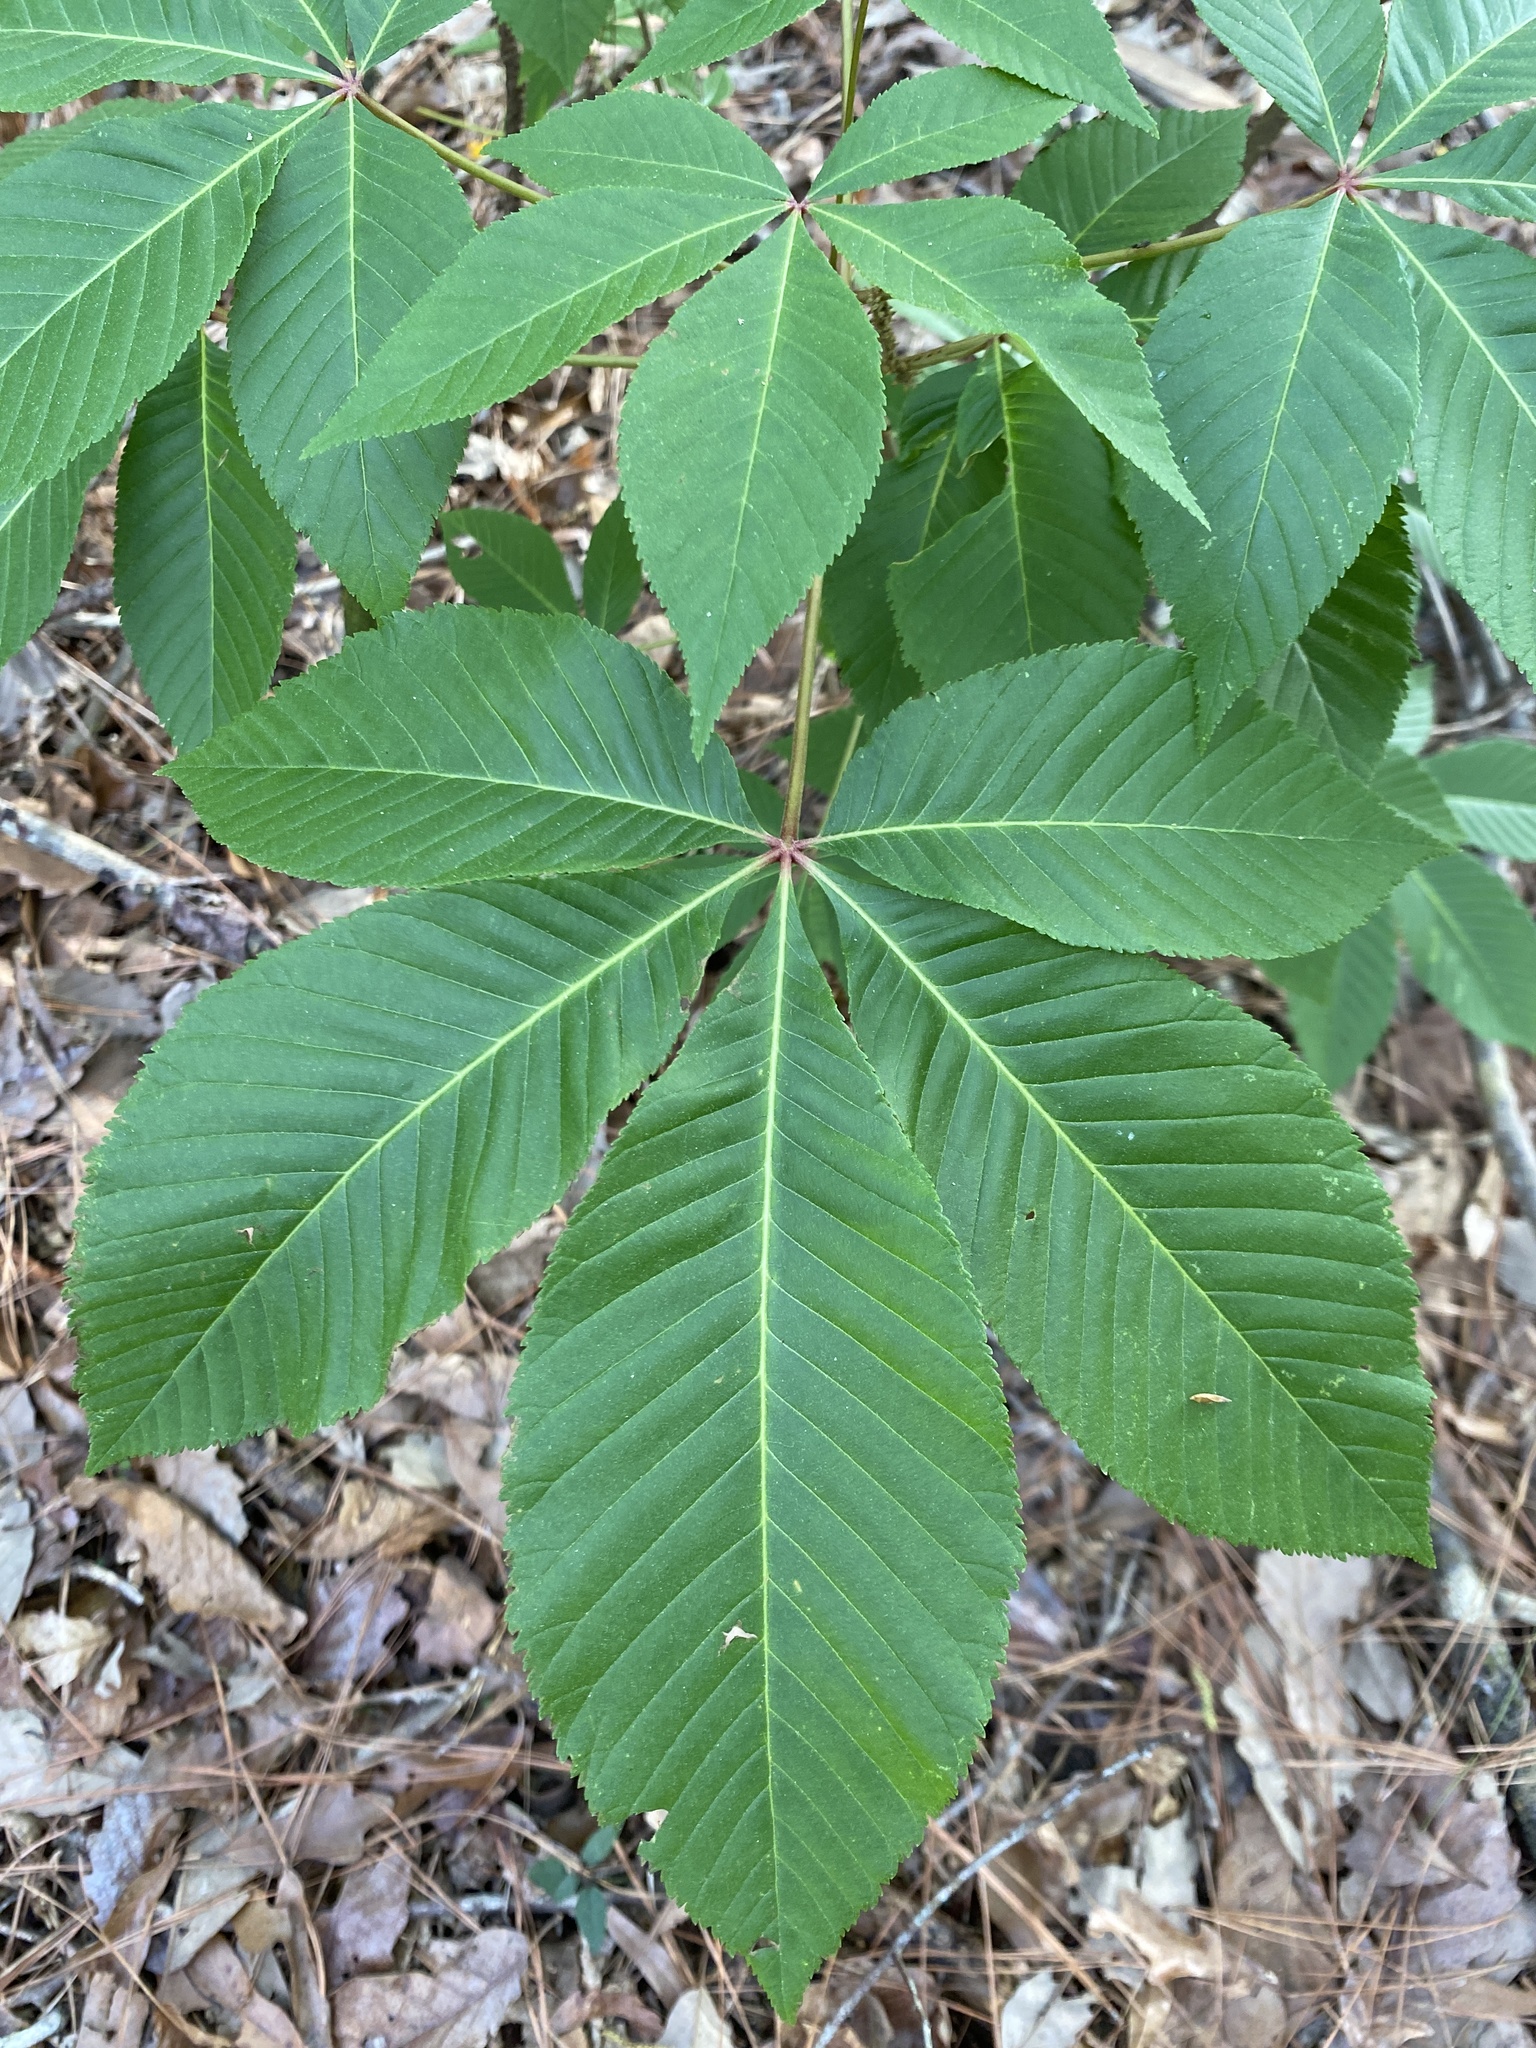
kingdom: Plantae
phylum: Tracheophyta
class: Magnoliopsida
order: Sapindales
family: Sapindaceae
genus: Aesculus
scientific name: Aesculus pavia
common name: Red buckeye
